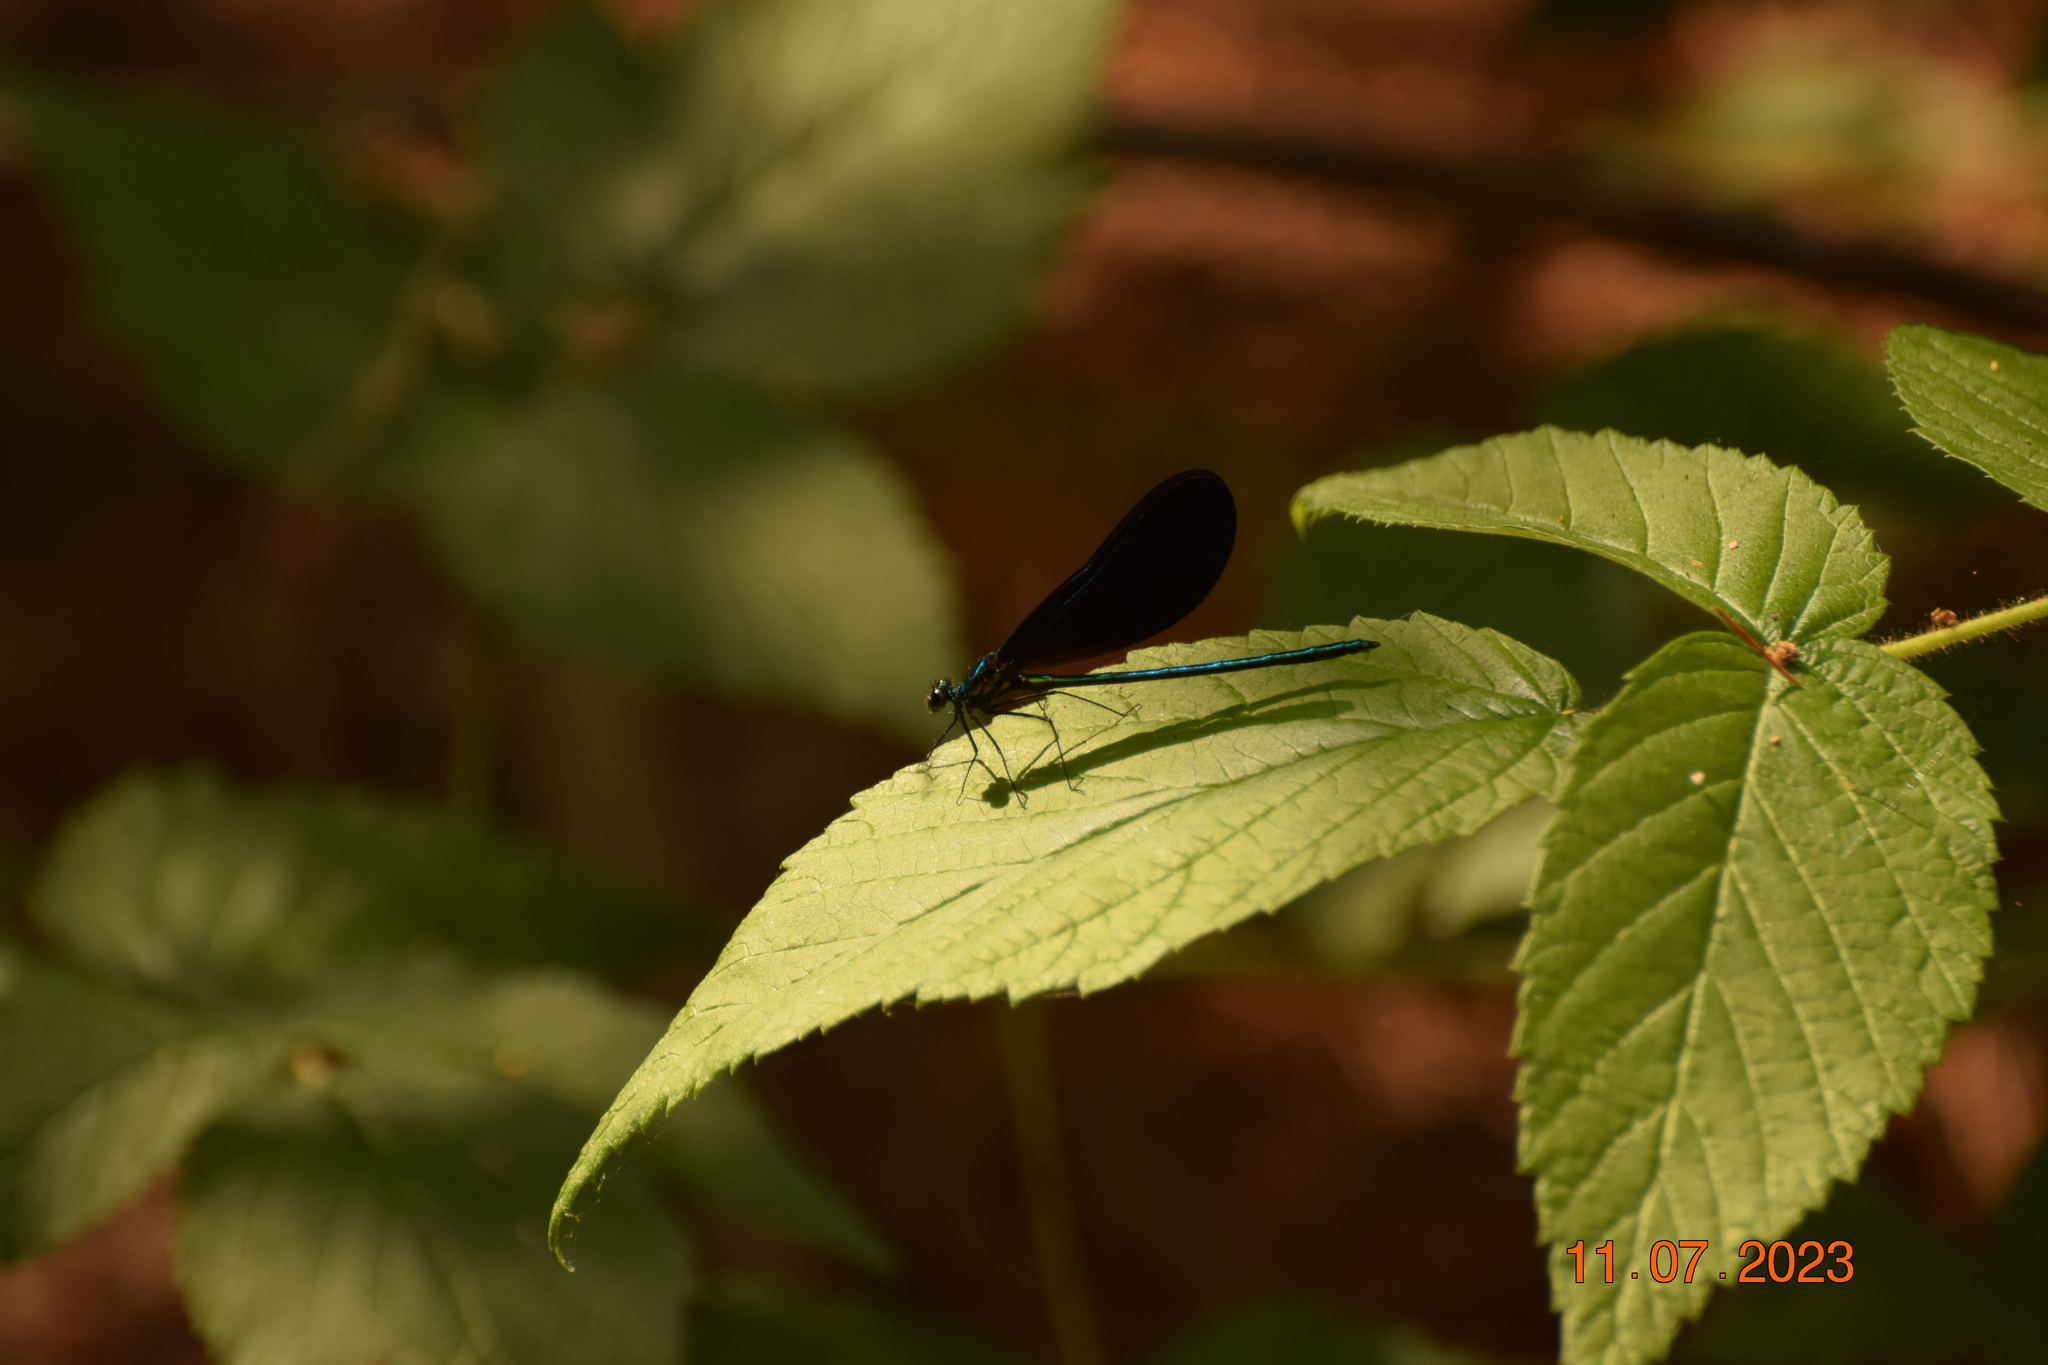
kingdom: Animalia
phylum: Arthropoda
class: Insecta
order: Odonata
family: Calopterygidae
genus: Calopteryx
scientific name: Calopteryx maculata
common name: Ebony jewelwing
